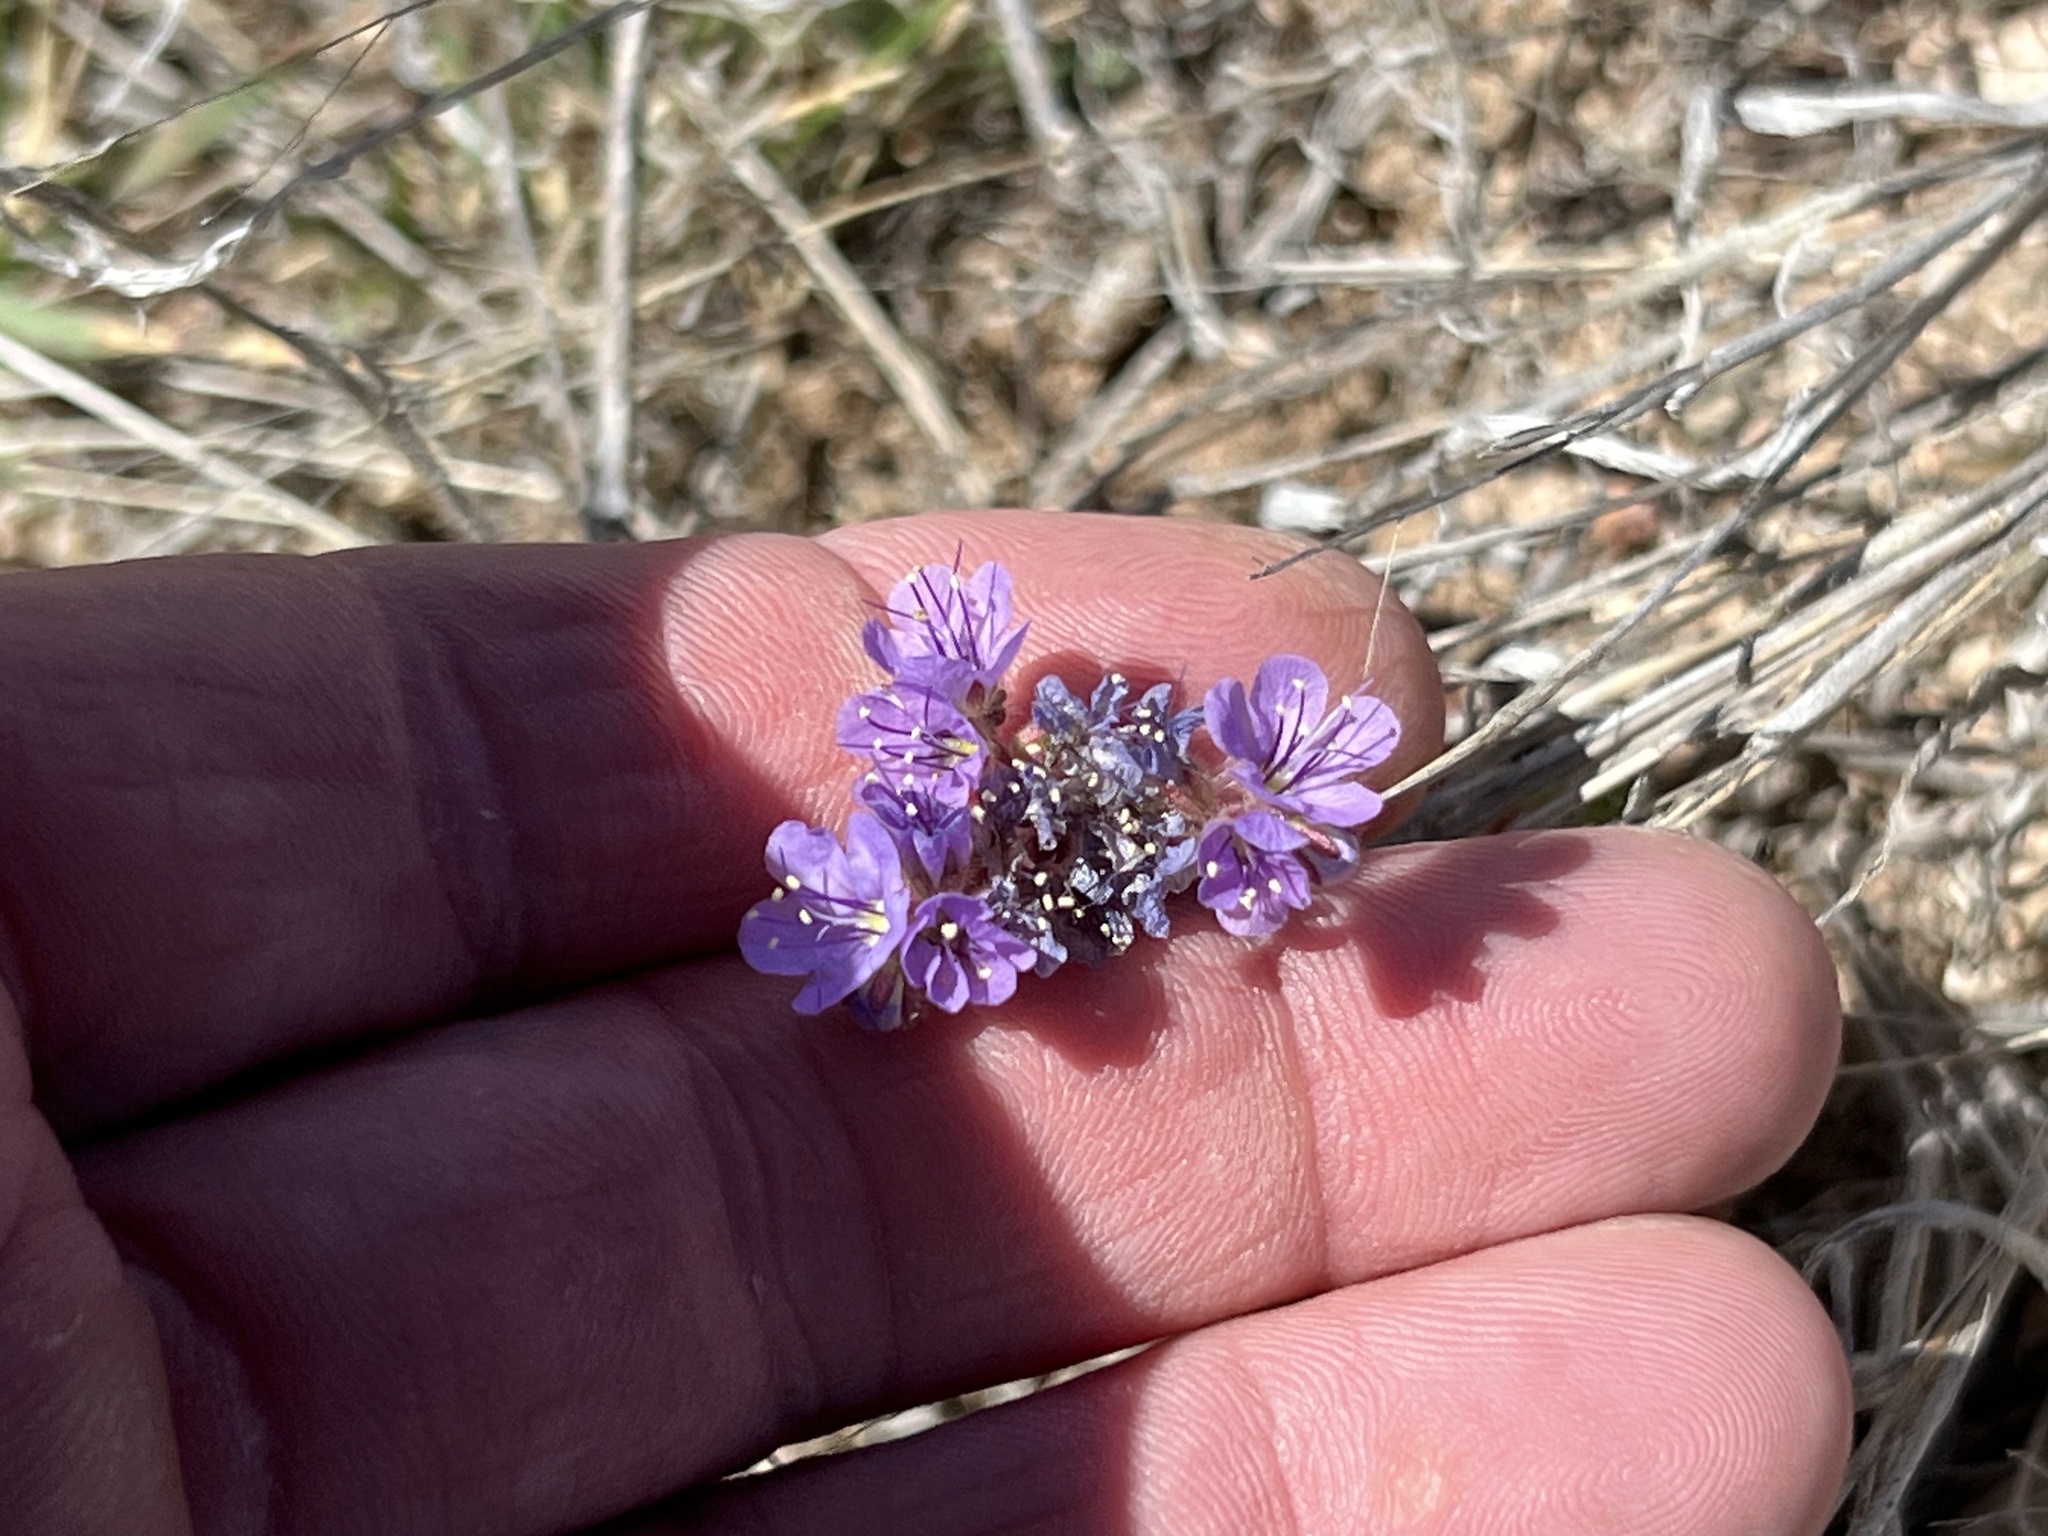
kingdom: Plantae
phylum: Tracheophyta
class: Magnoliopsida
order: Boraginales
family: Hydrophyllaceae
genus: Phacelia
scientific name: Phacelia crenulata
